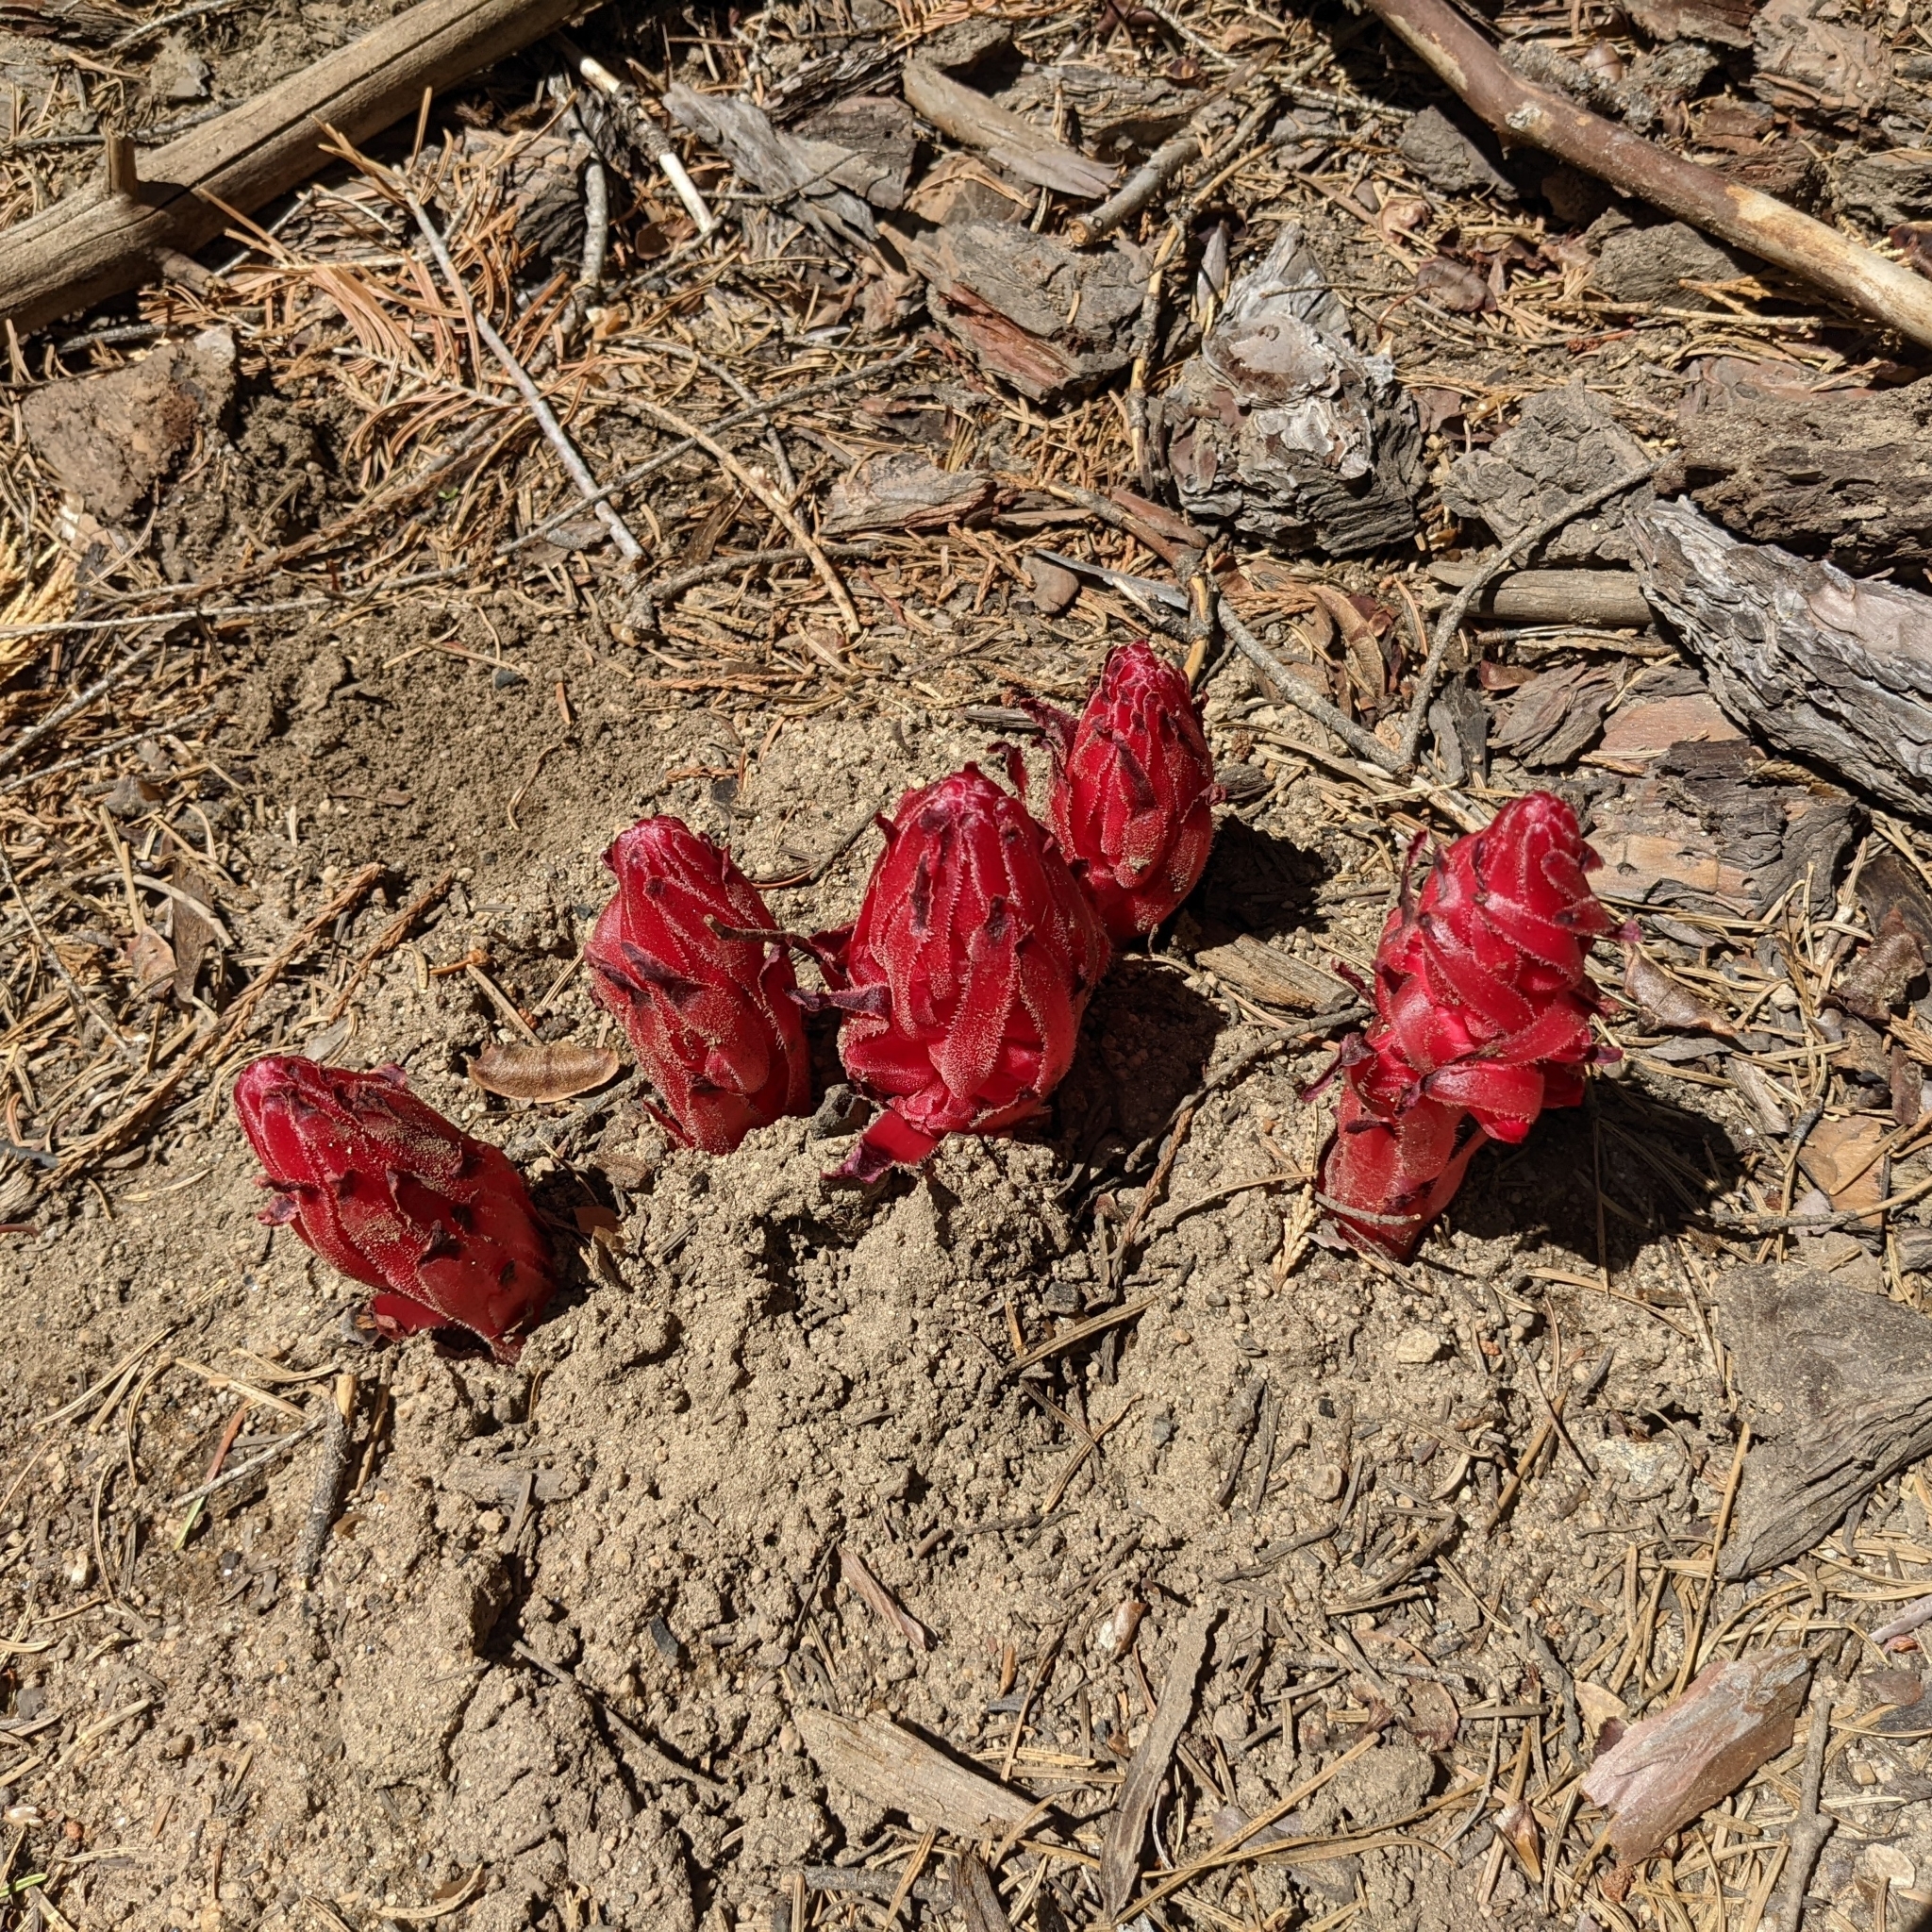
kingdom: Plantae
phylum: Tracheophyta
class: Magnoliopsida
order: Ericales
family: Ericaceae
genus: Sarcodes
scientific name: Sarcodes sanguinea
